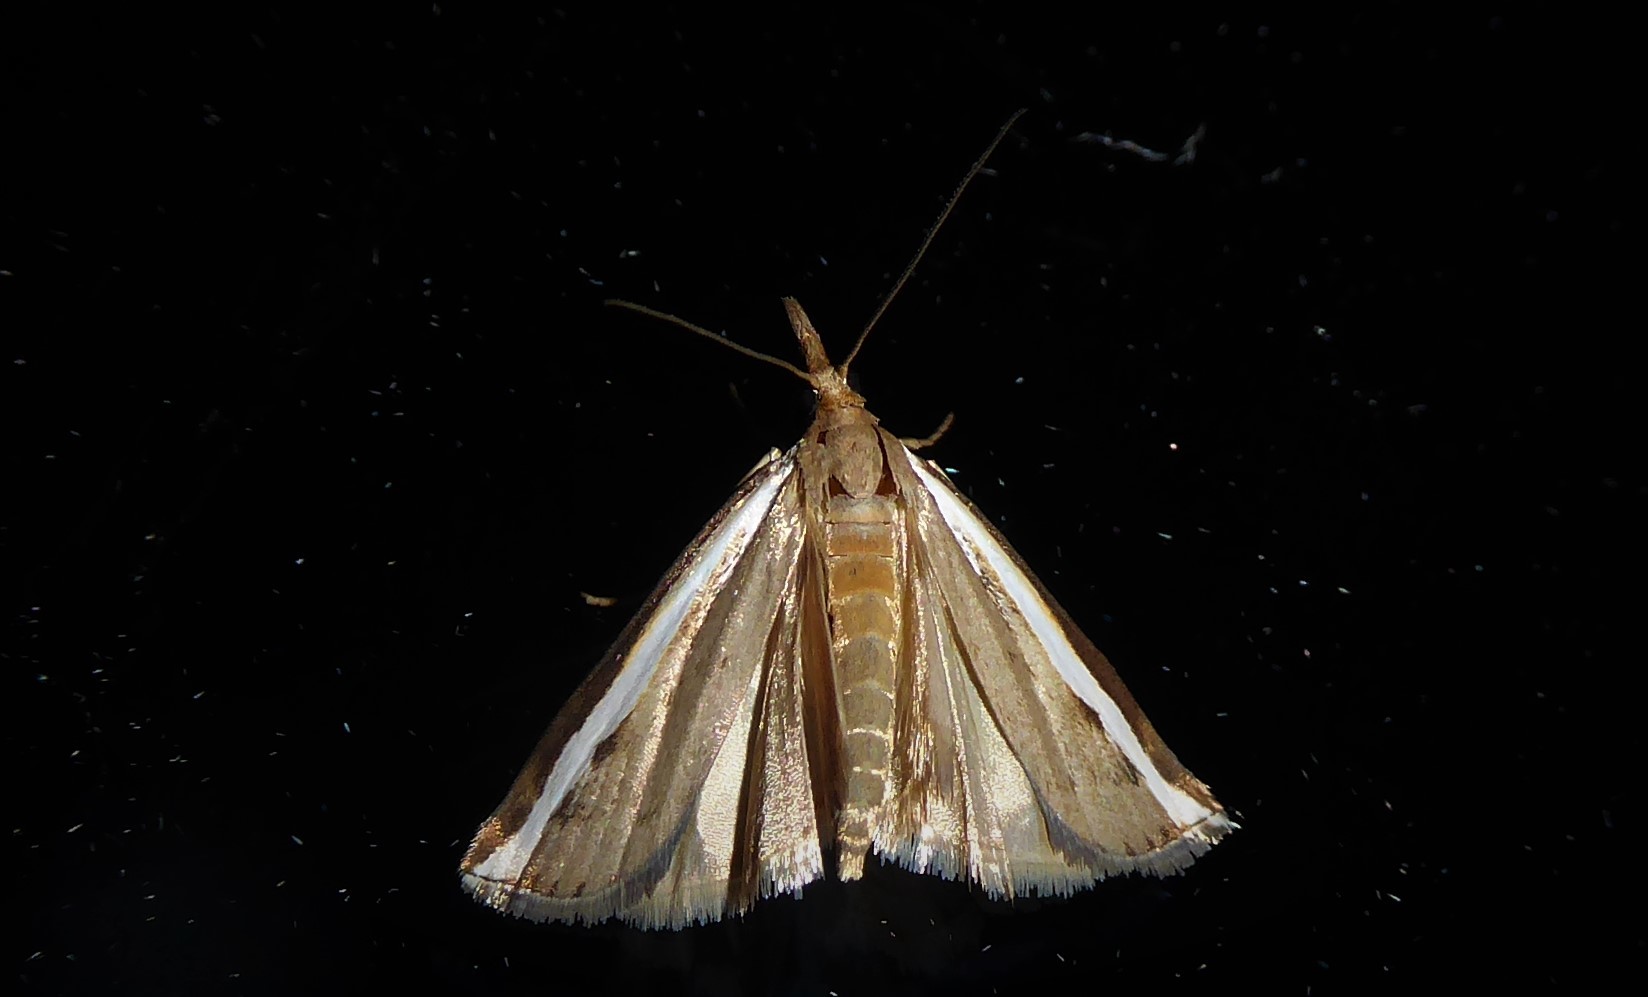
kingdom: Animalia
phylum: Arthropoda
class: Insecta
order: Lepidoptera
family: Crambidae
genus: Orocrambus
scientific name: Orocrambus flexuosellus
